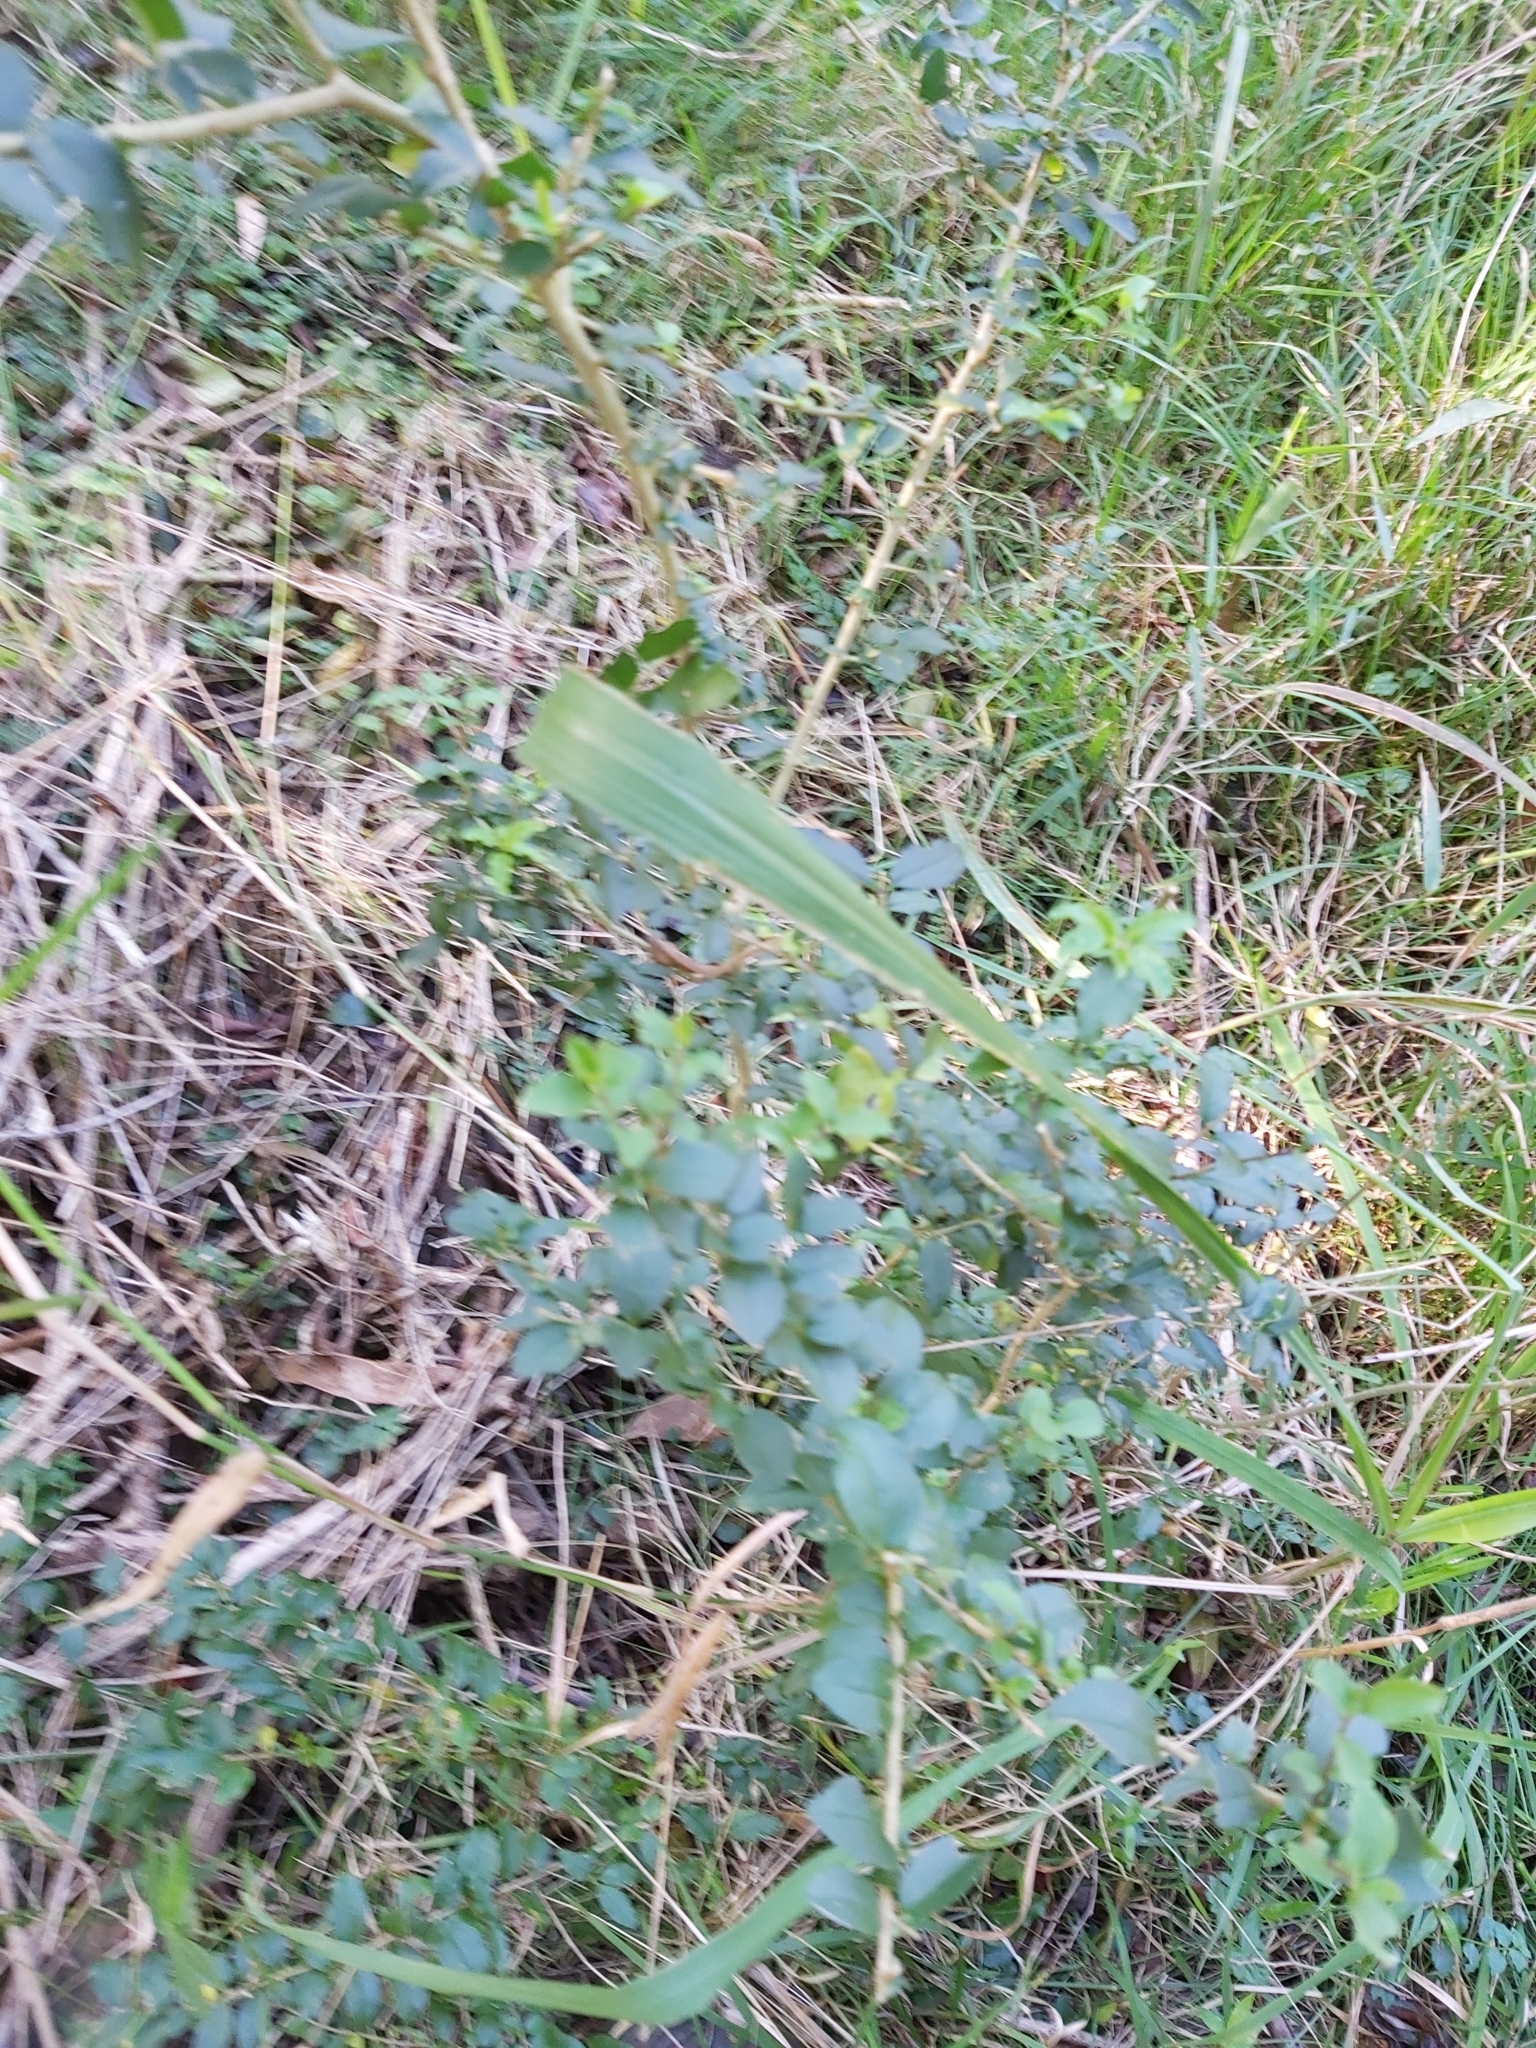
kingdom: Plantae
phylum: Tracheophyta
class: Magnoliopsida
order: Lamiales
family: Oleaceae
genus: Ligustrum
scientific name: Ligustrum sinense
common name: Chinese privet
